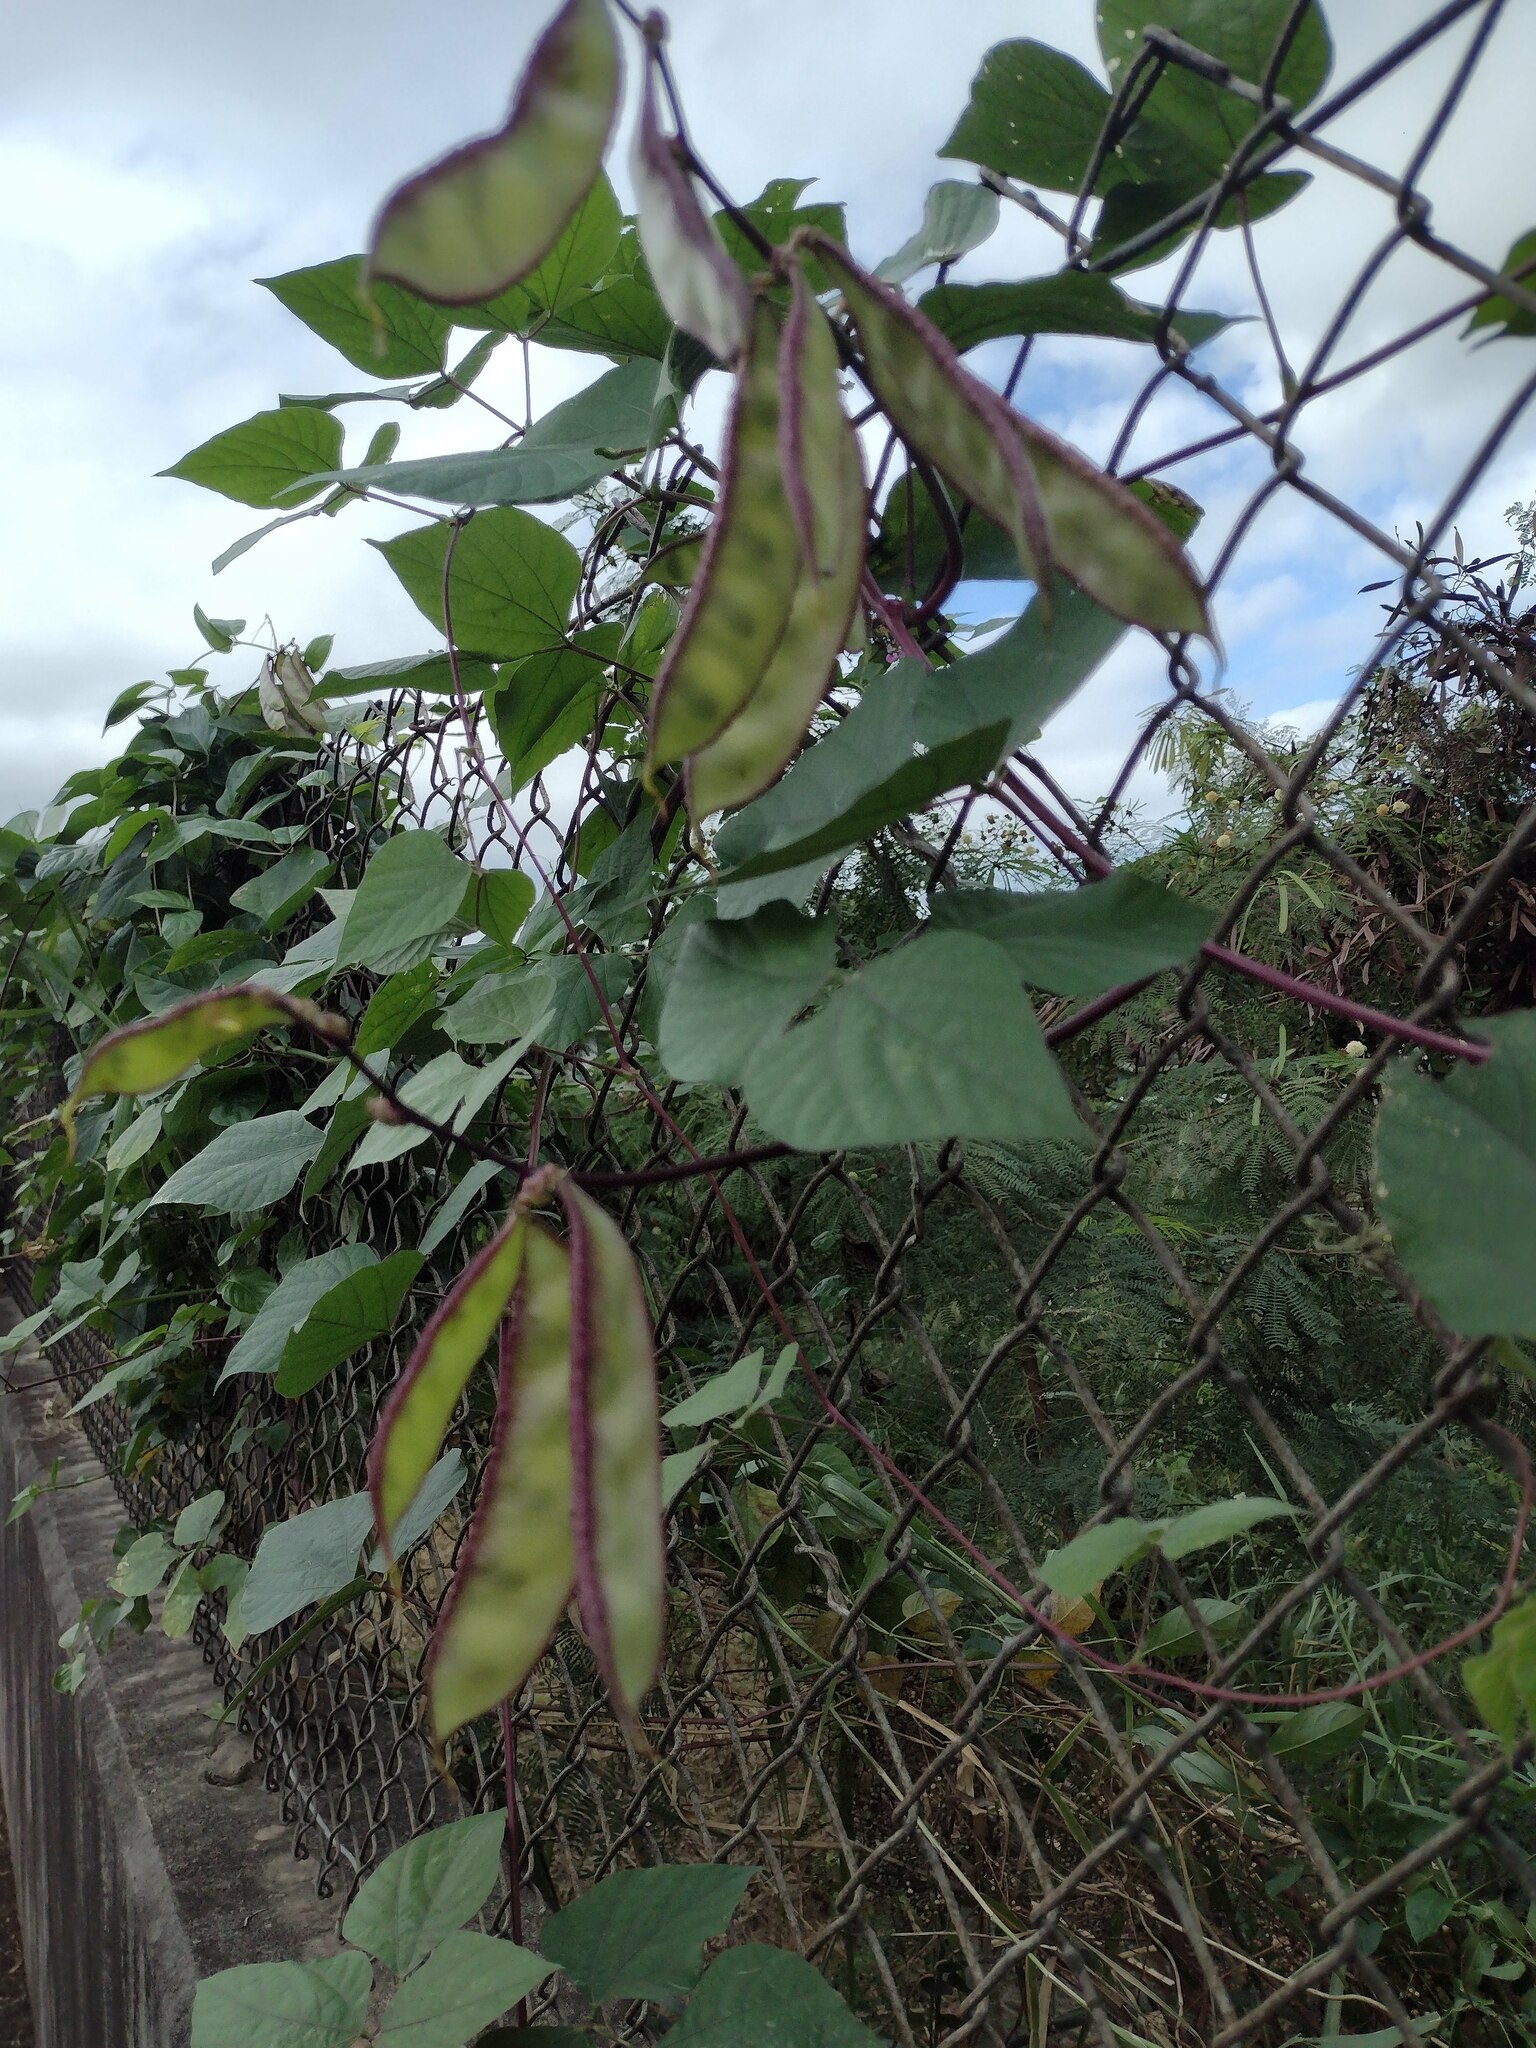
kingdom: Plantae
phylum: Tracheophyta
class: Magnoliopsida
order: Fabales
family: Fabaceae
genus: Lablab
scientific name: Lablab purpureus
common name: Lablab-bean
